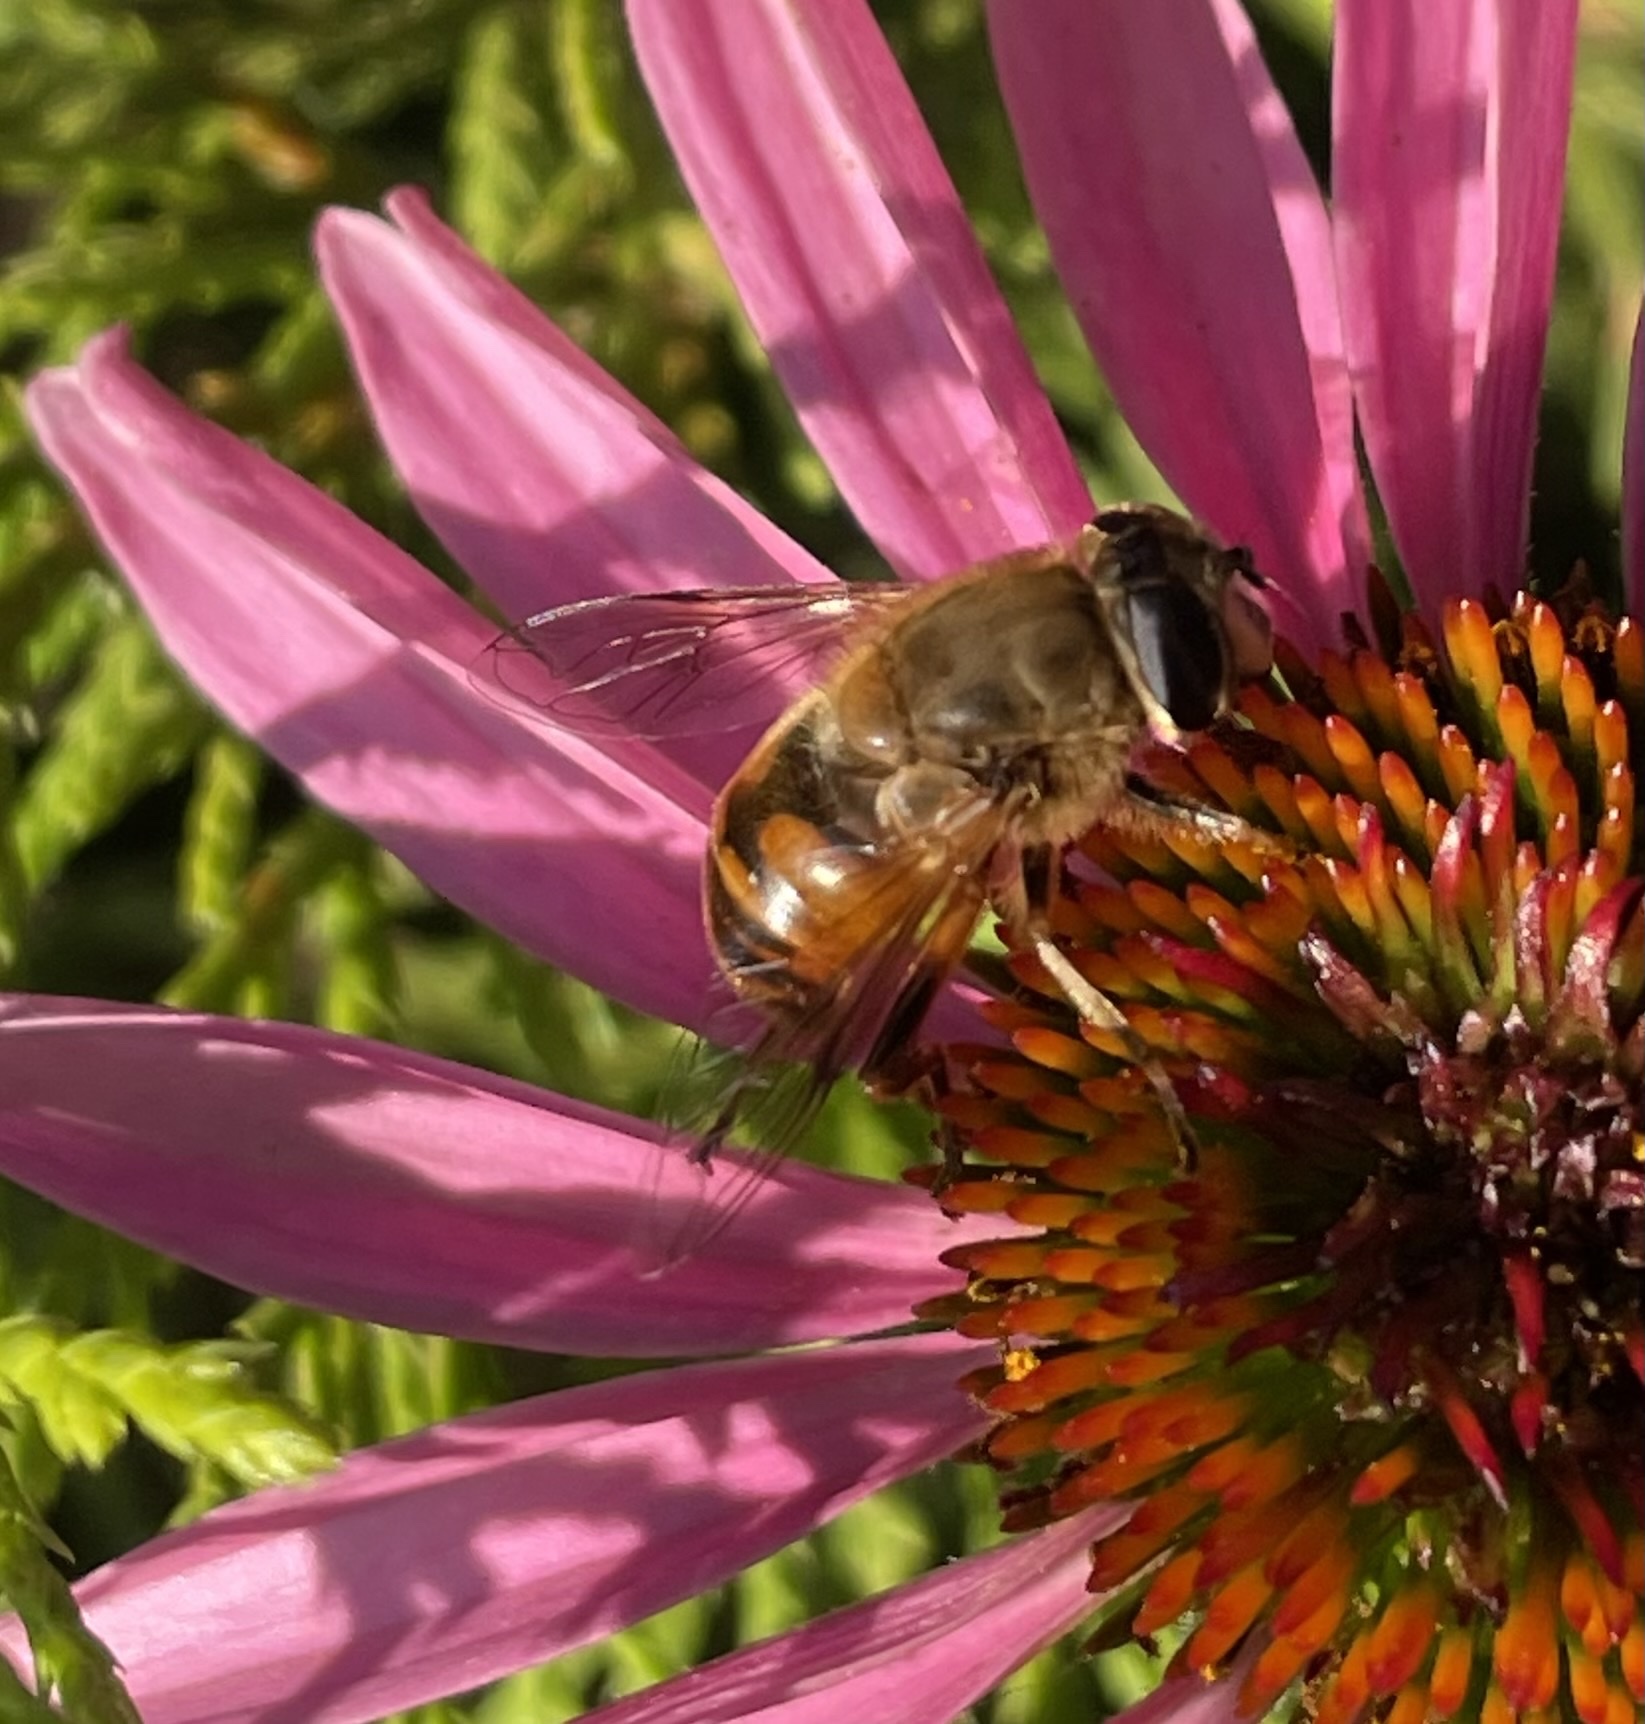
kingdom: Animalia
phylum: Arthropoda
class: Insecta
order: Diptera
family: Syrphidae
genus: Eristalis
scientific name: Eristalis tenax
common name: Drone fly
